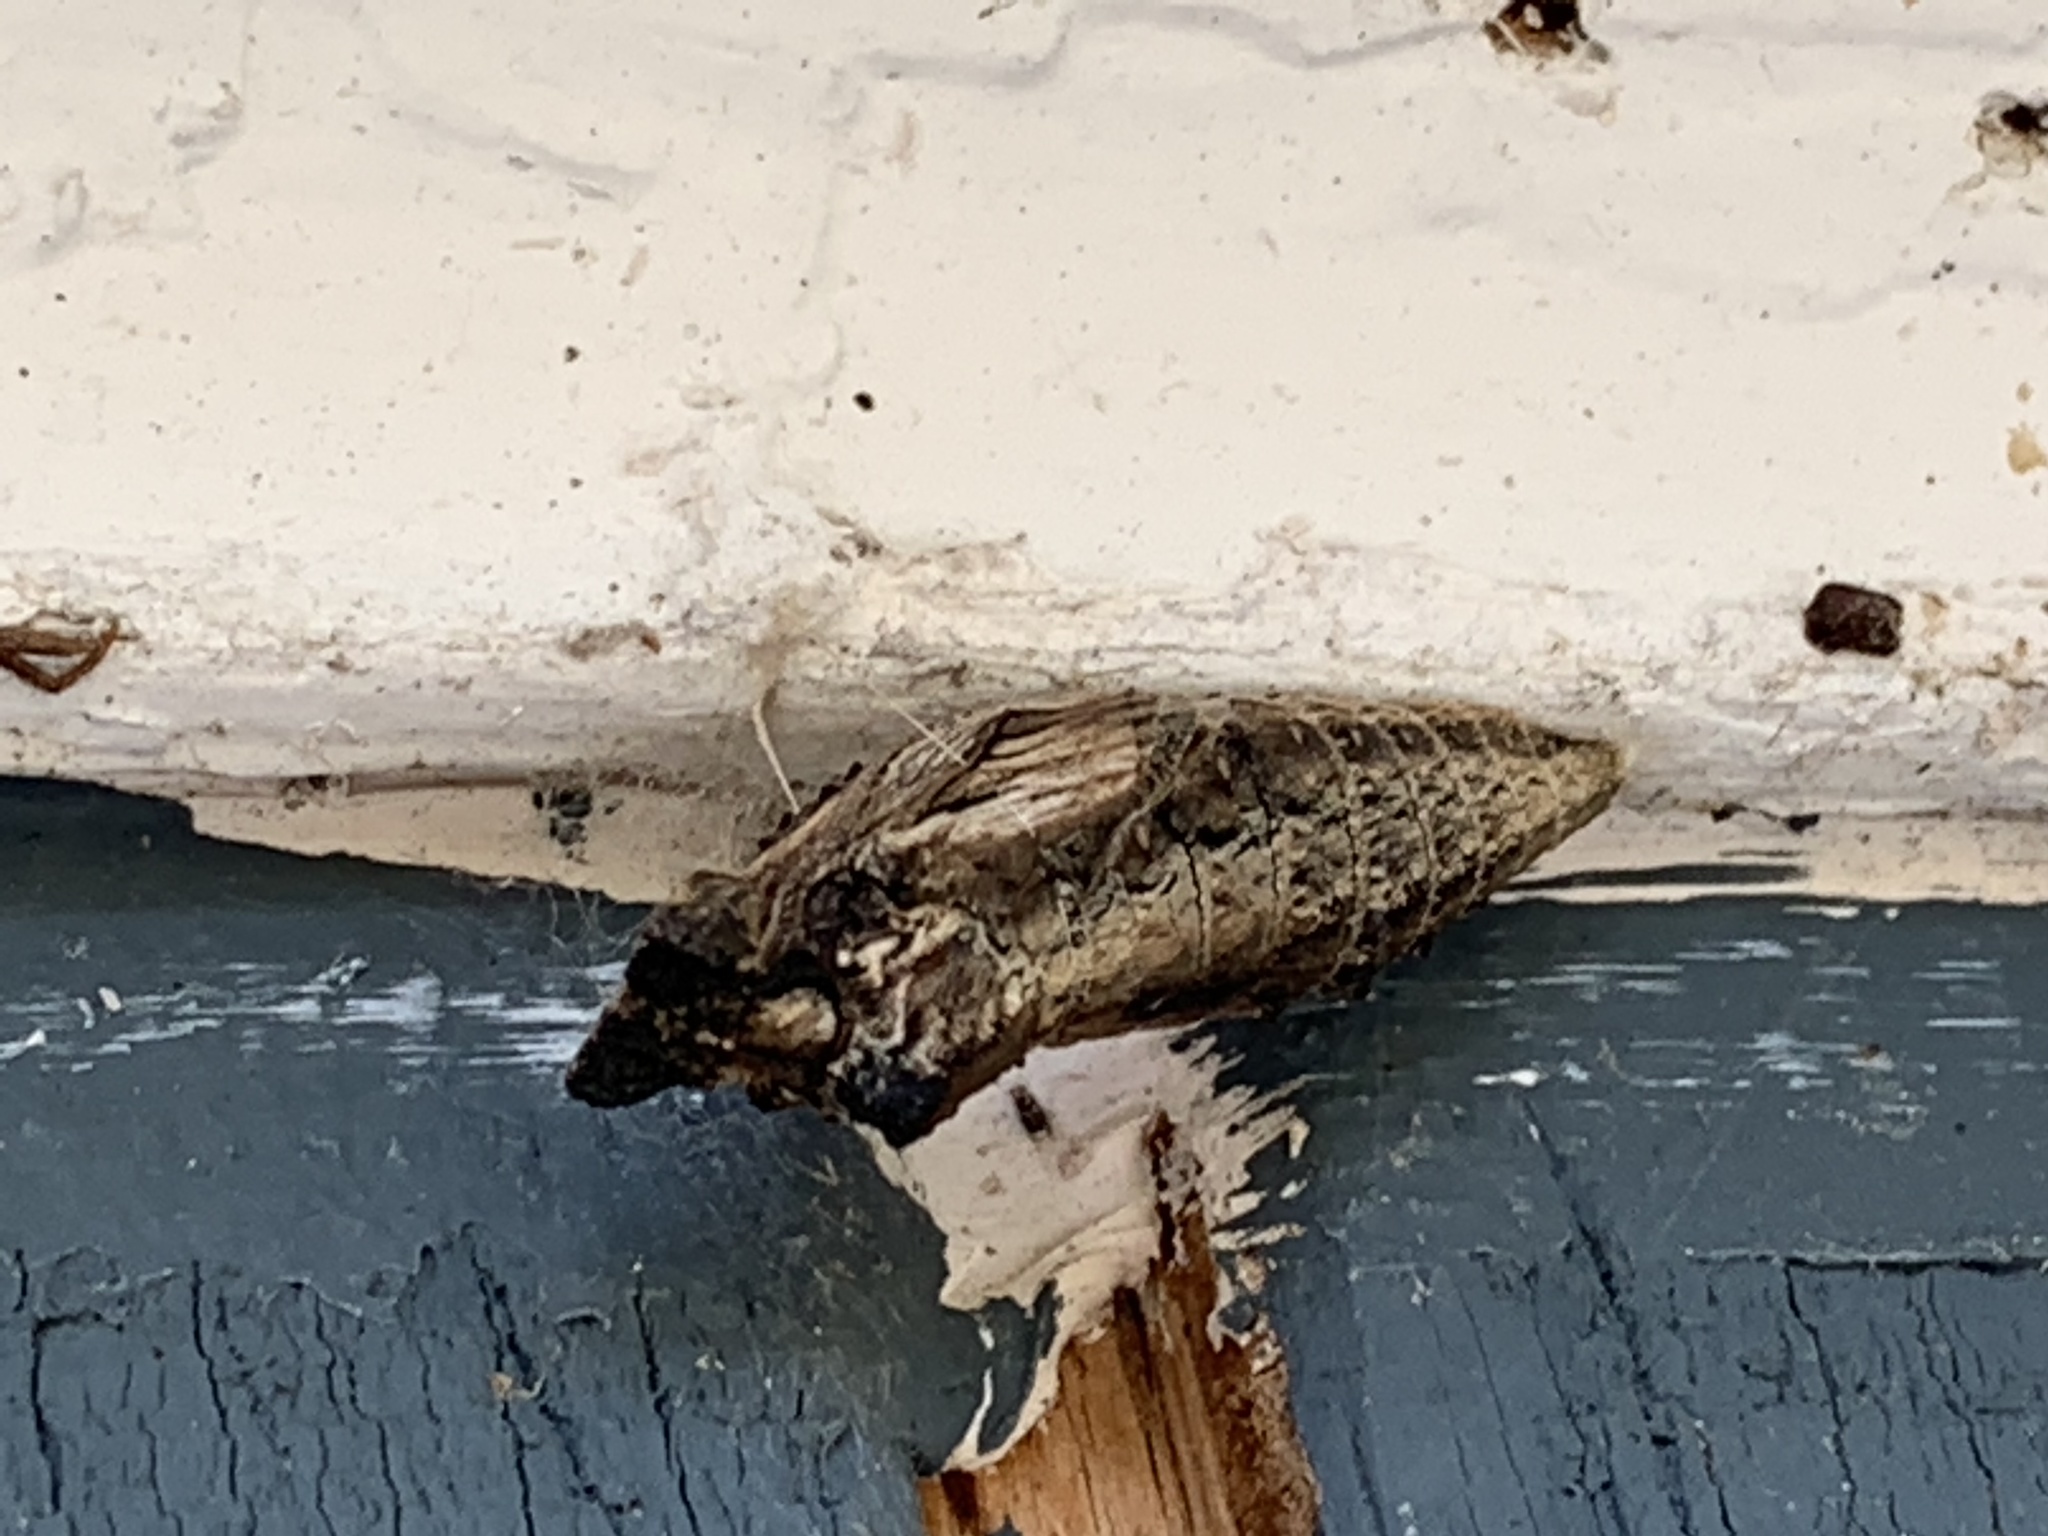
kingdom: Animalia
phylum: Arthropoda
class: Insecta
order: Lepidoptera
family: Papilionidae
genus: Papilio
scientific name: Papilio polyxenes
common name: Black swallowtail
